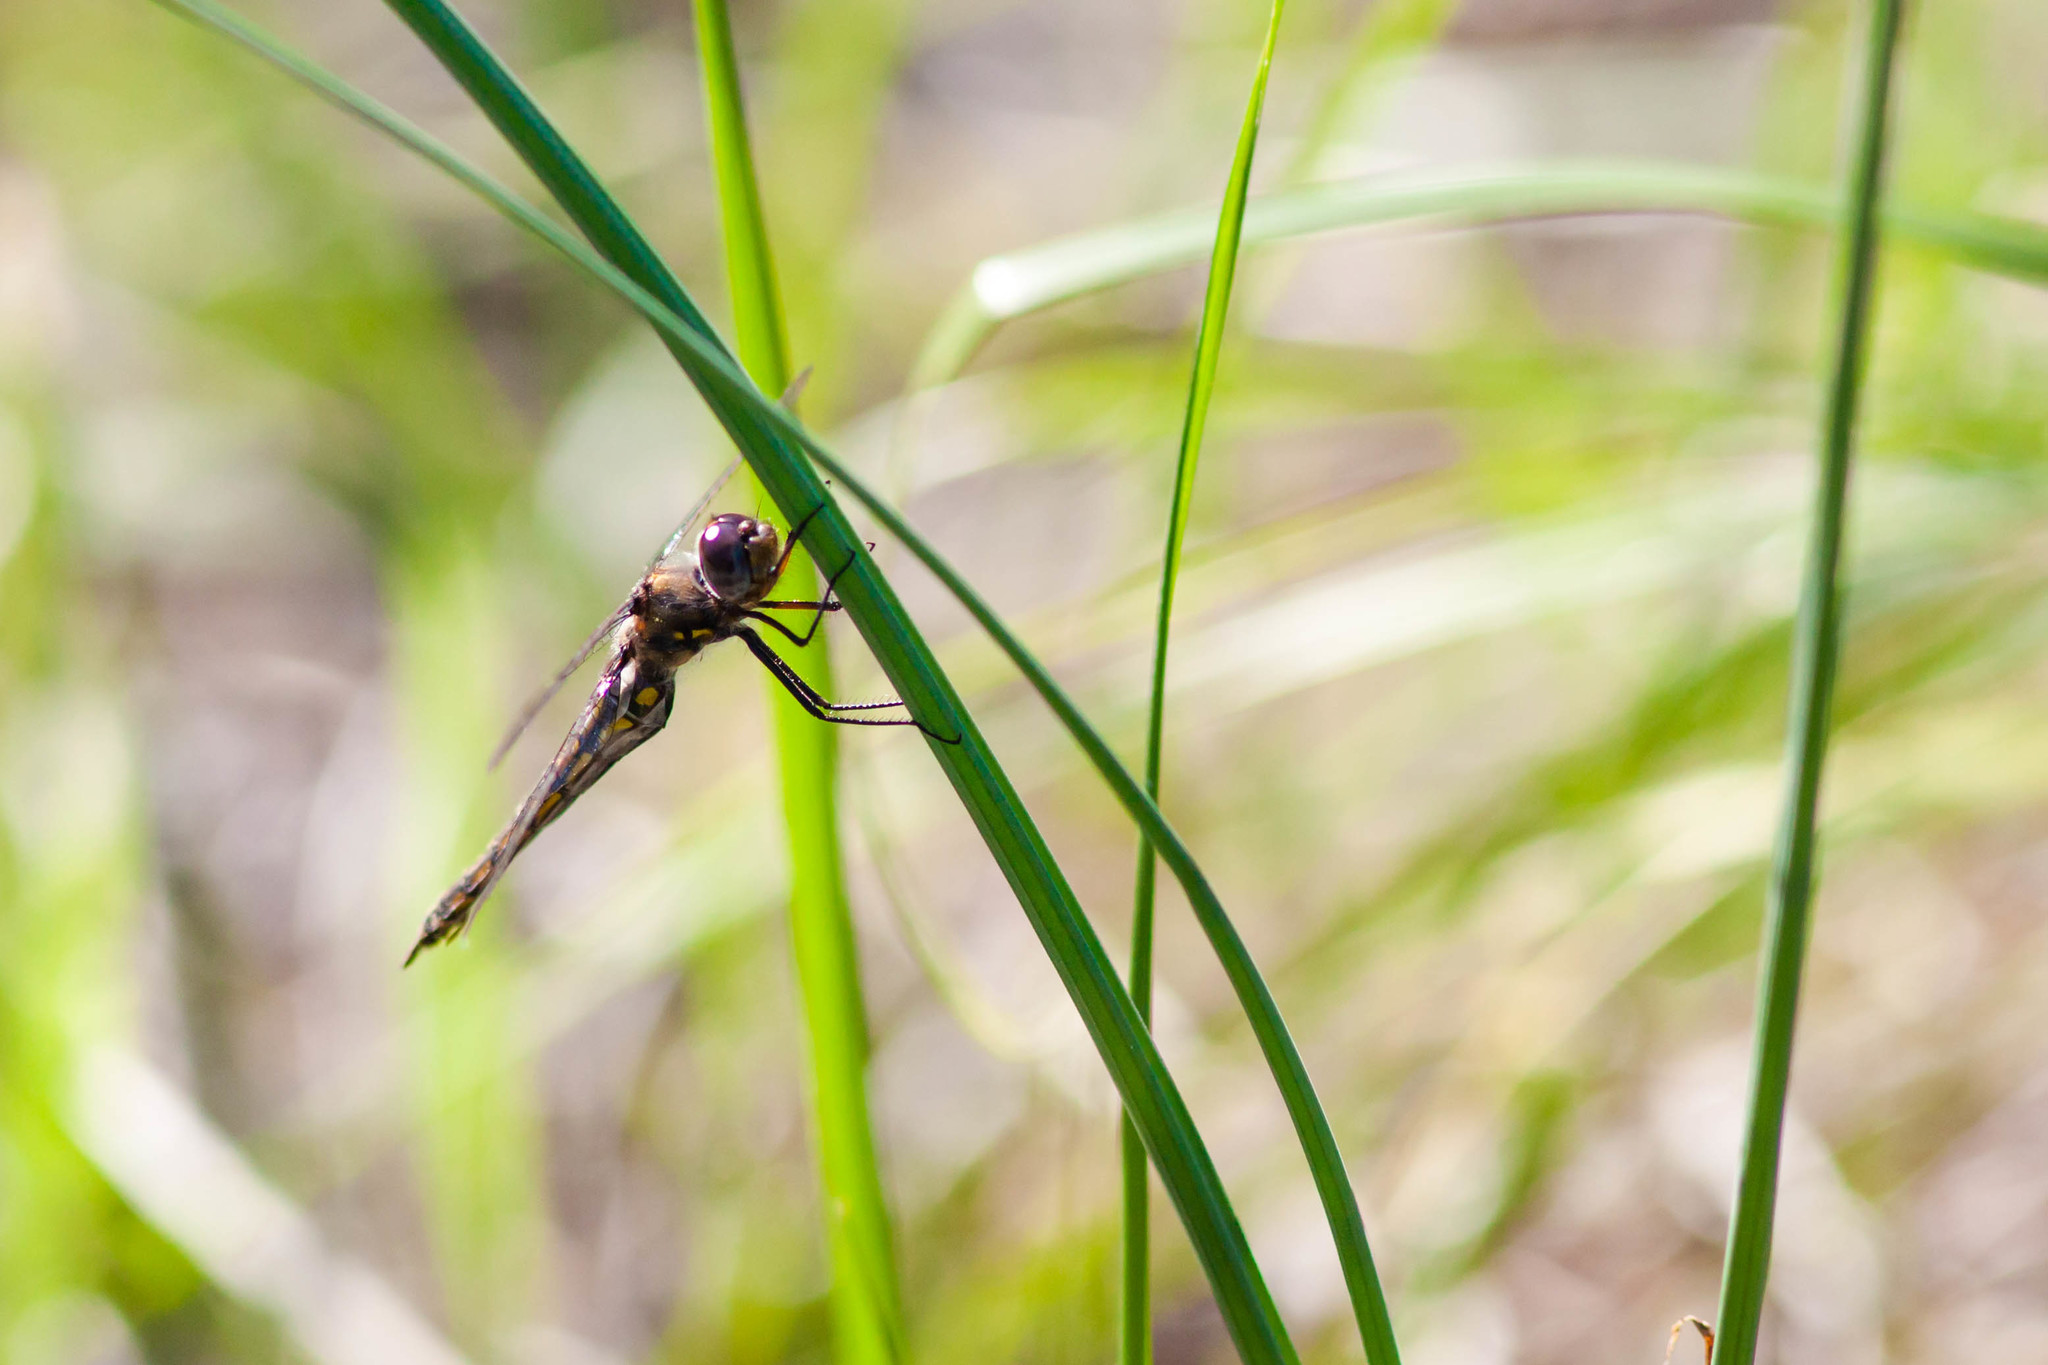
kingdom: Animalia
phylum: Arthropoda
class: Insecta
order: Odonata
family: Corduliidae
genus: Epitheca
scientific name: Epitheca cynosura
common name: Common baskettail
